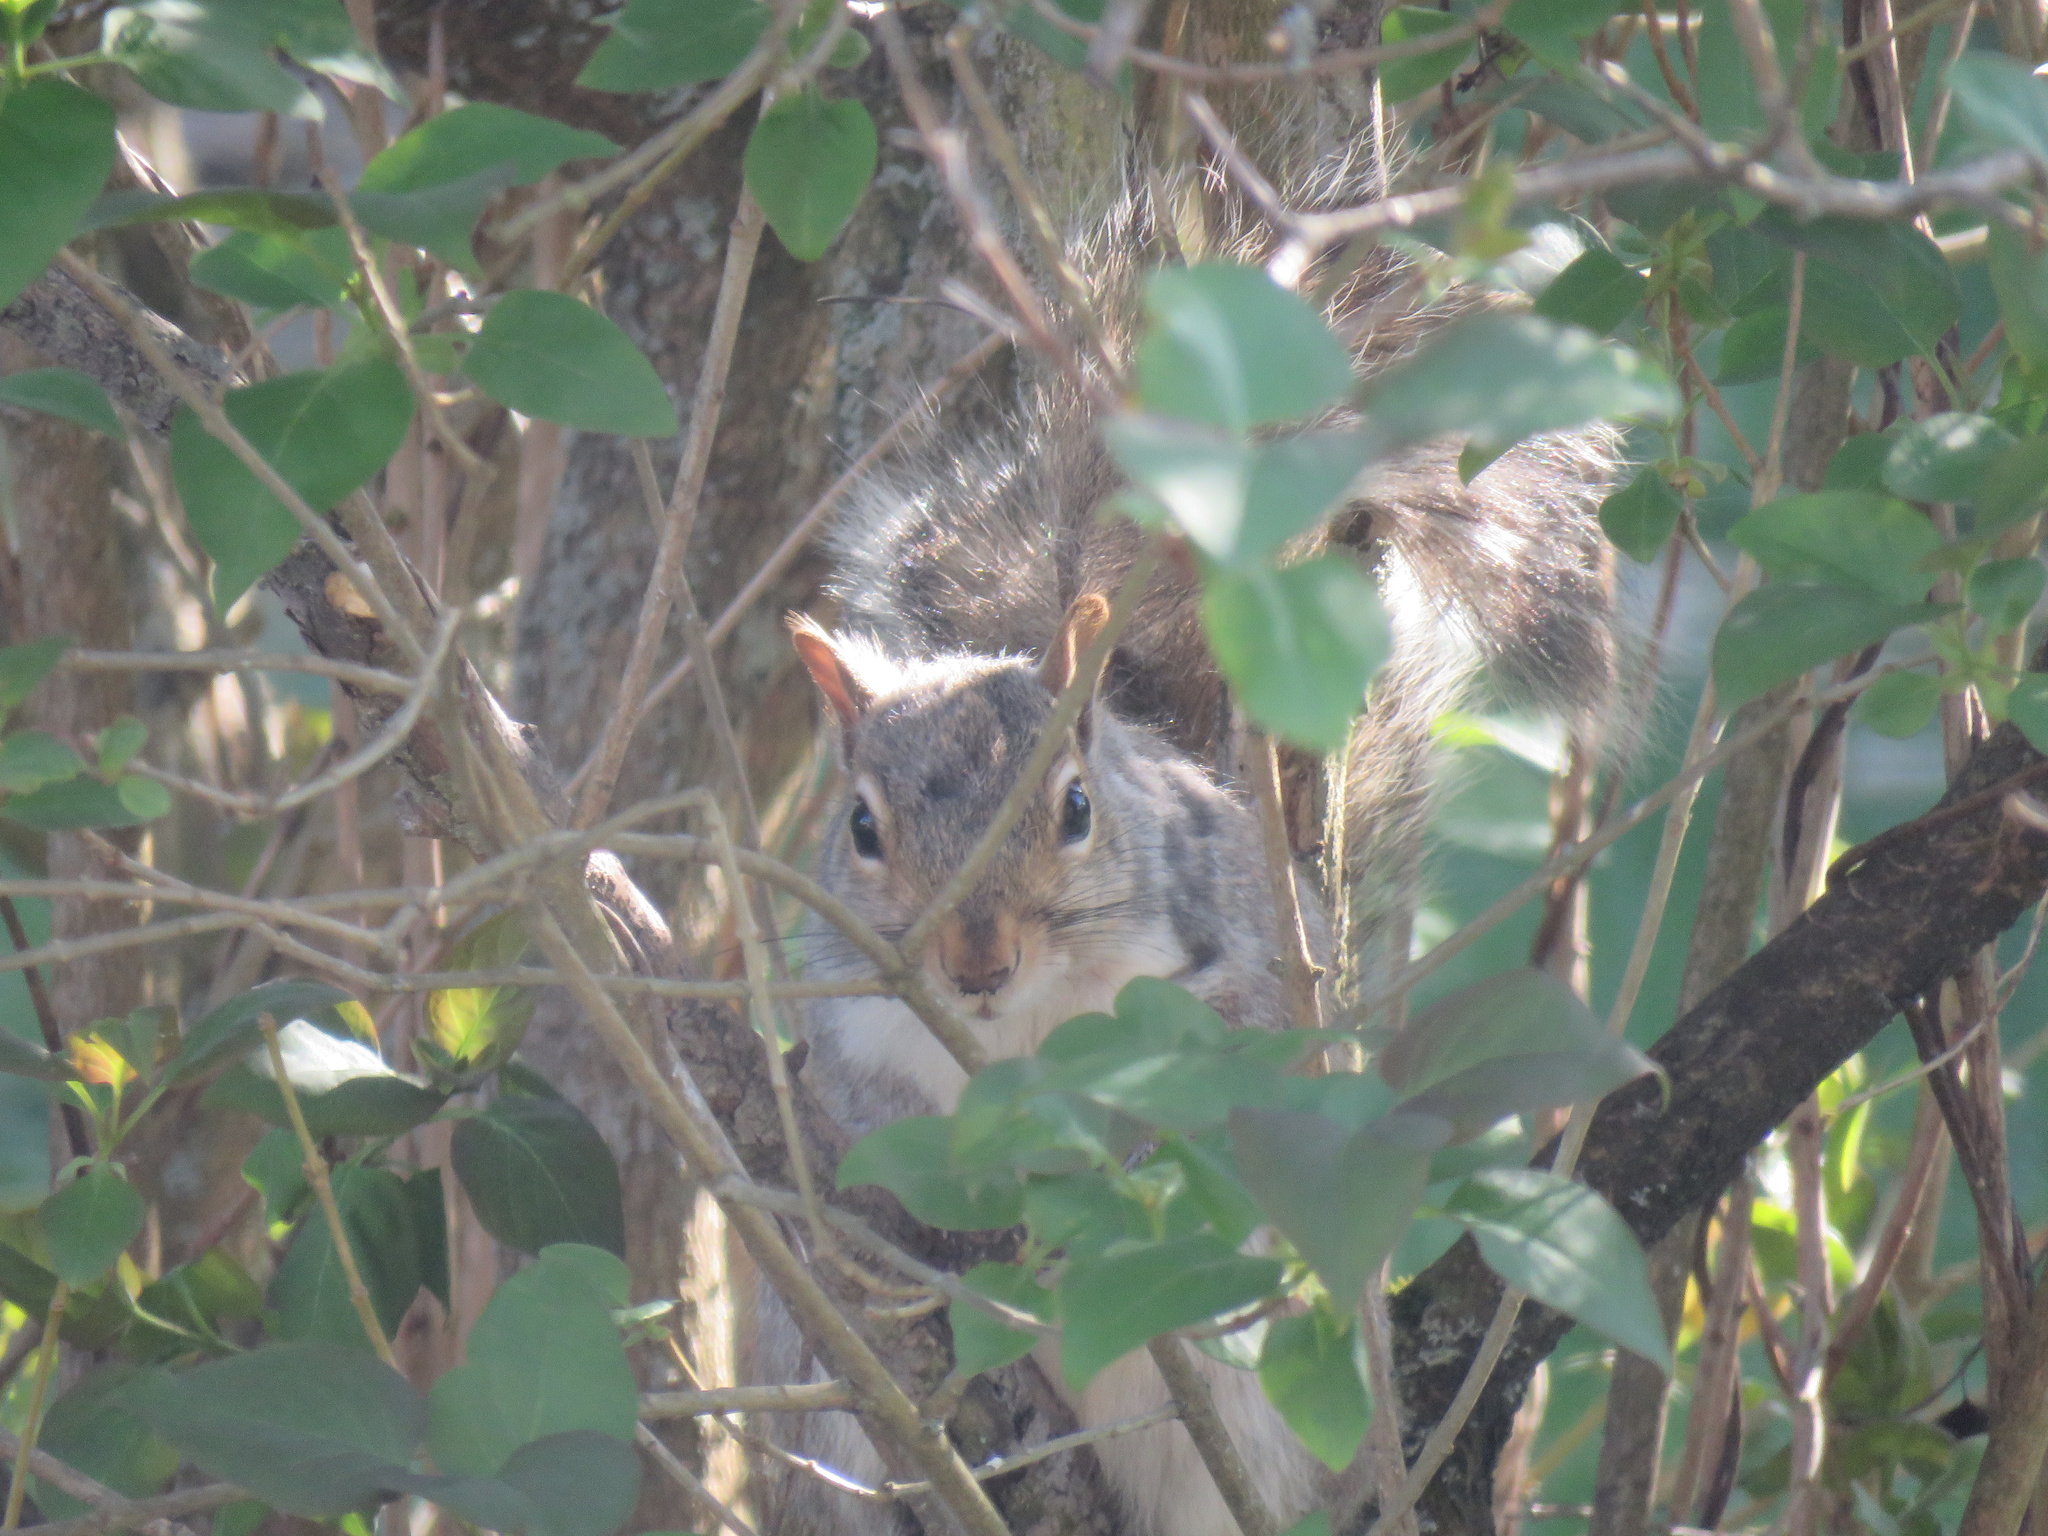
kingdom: Animalia
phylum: Chordata
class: Mammalia
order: Rodentia
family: Sciuridae
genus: Sciurus
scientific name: Sciurus carolinensis
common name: Eastern gray squirrel
